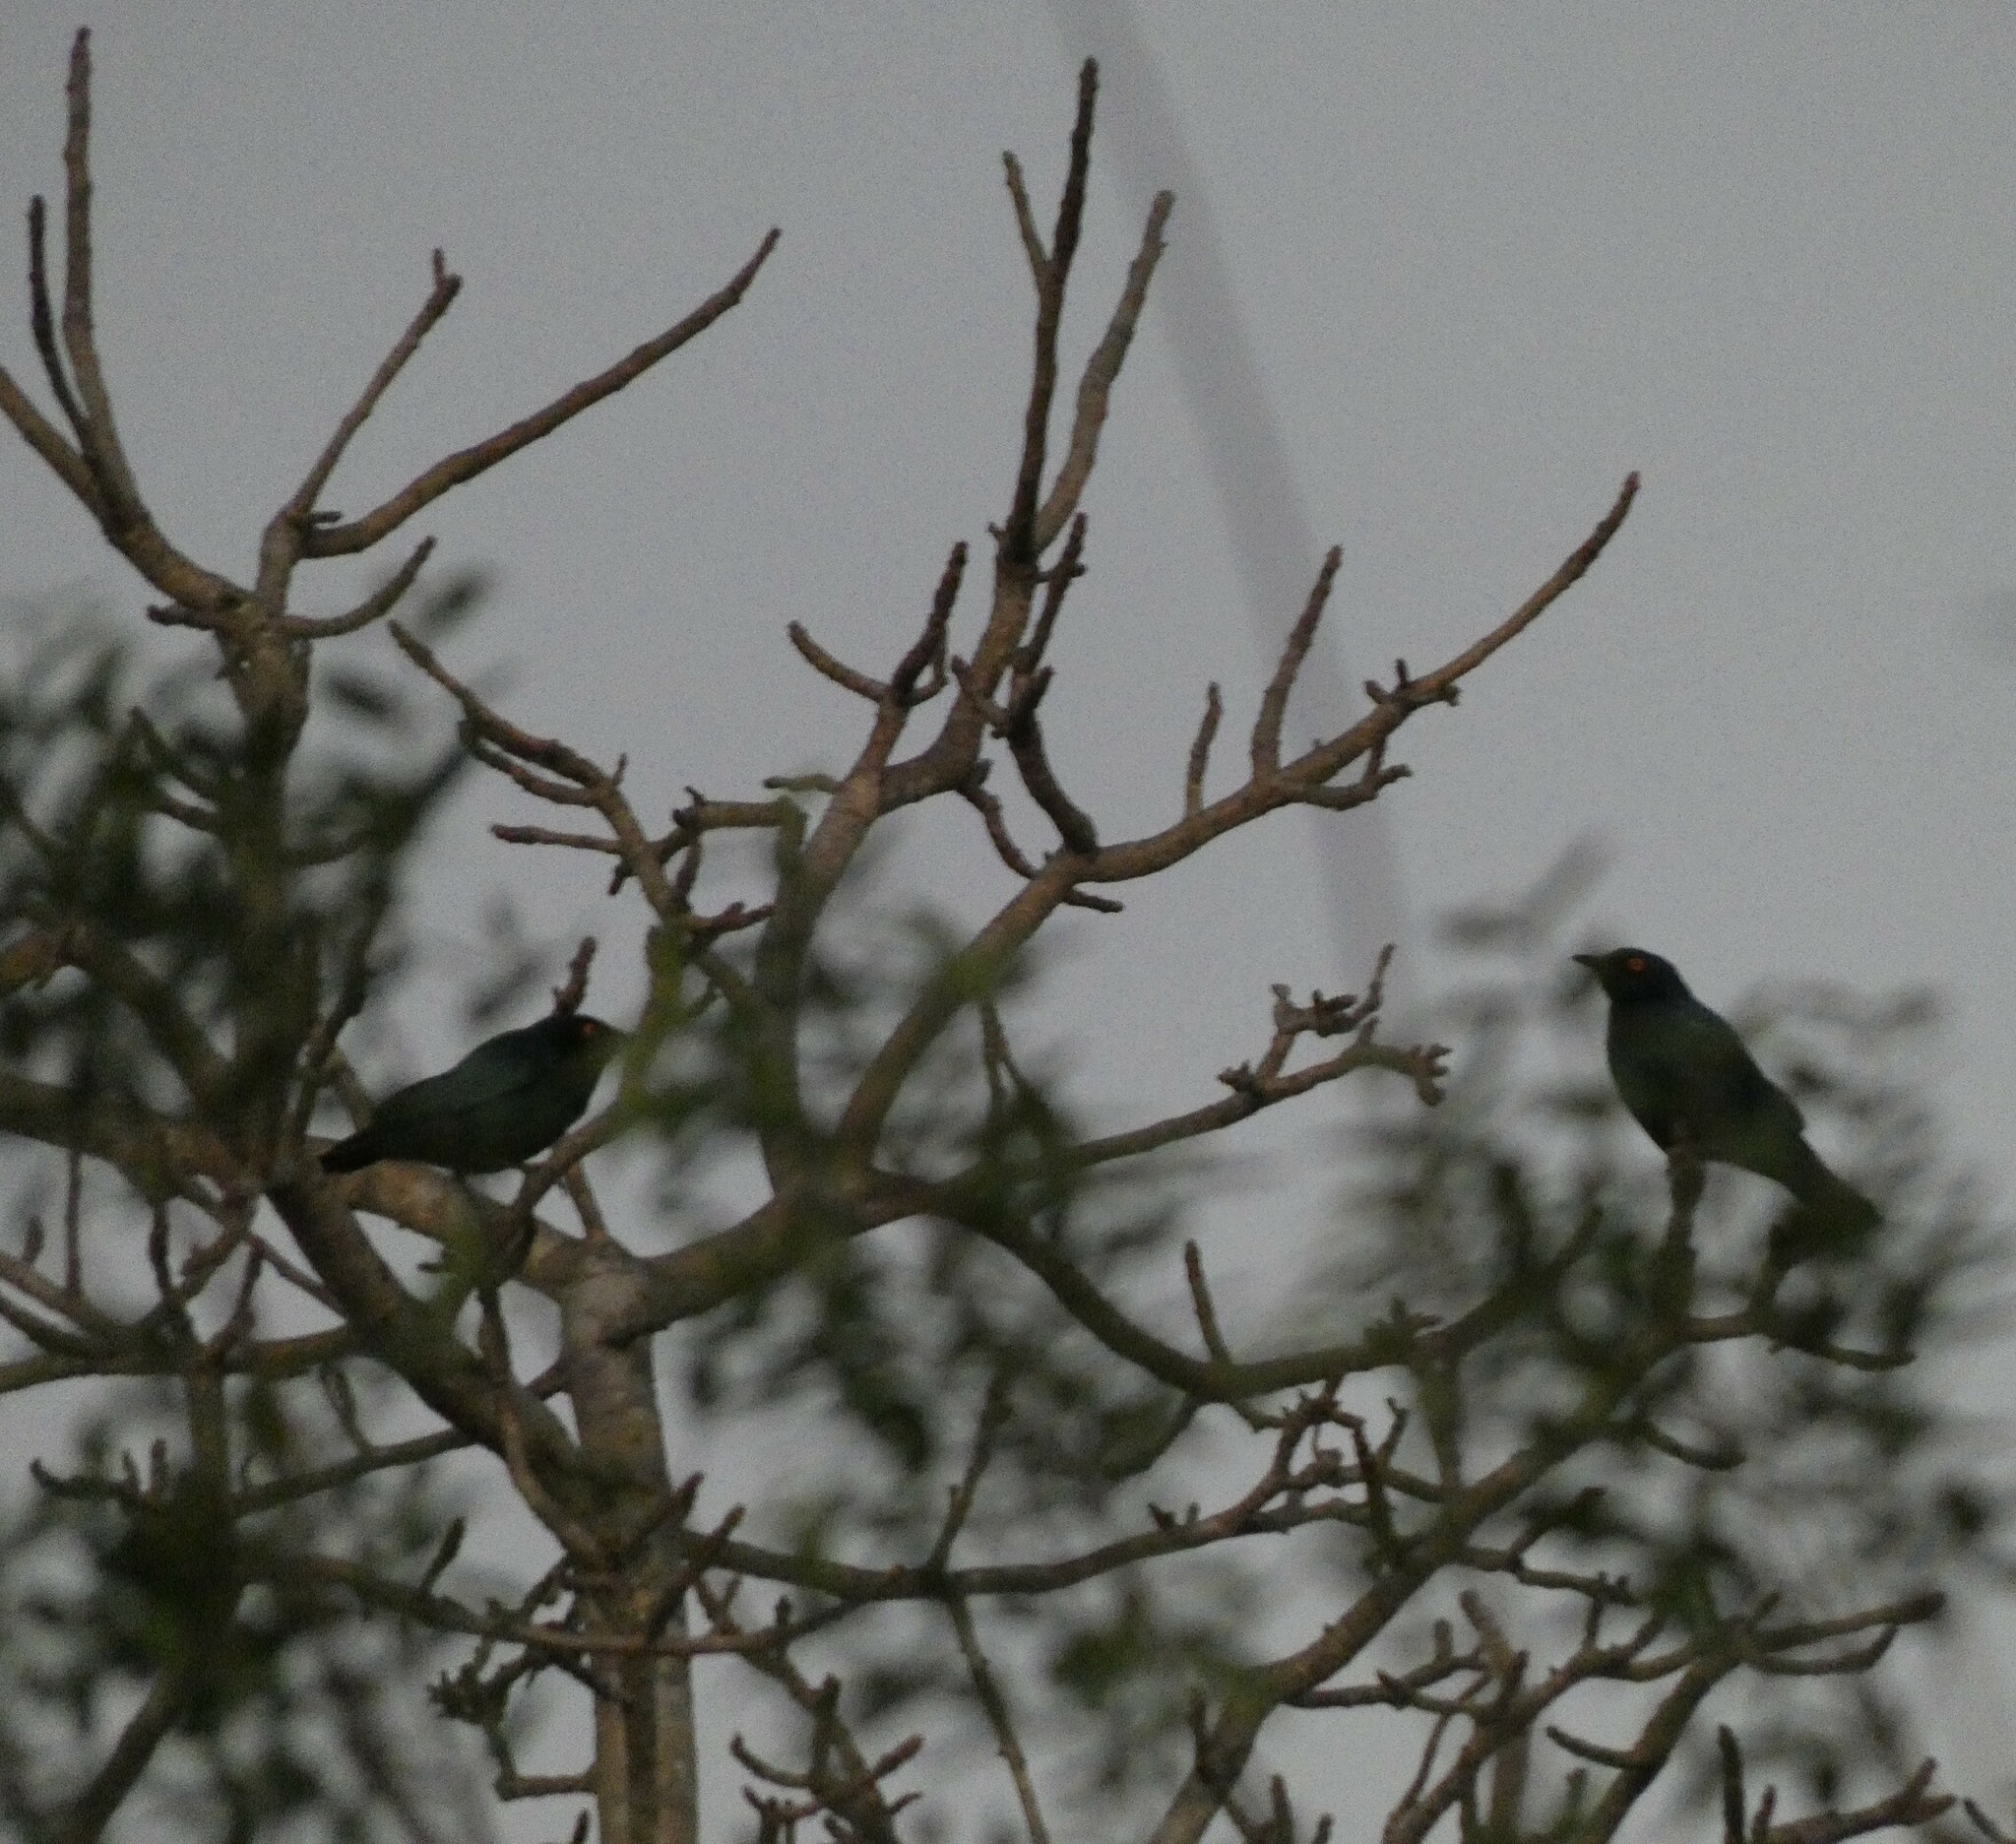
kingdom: Animalia
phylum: Chordata
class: Aves
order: Passeriformes
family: Sturnidae
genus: Lamprotornis
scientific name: Lamprotornis nitens
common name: Cape starling
